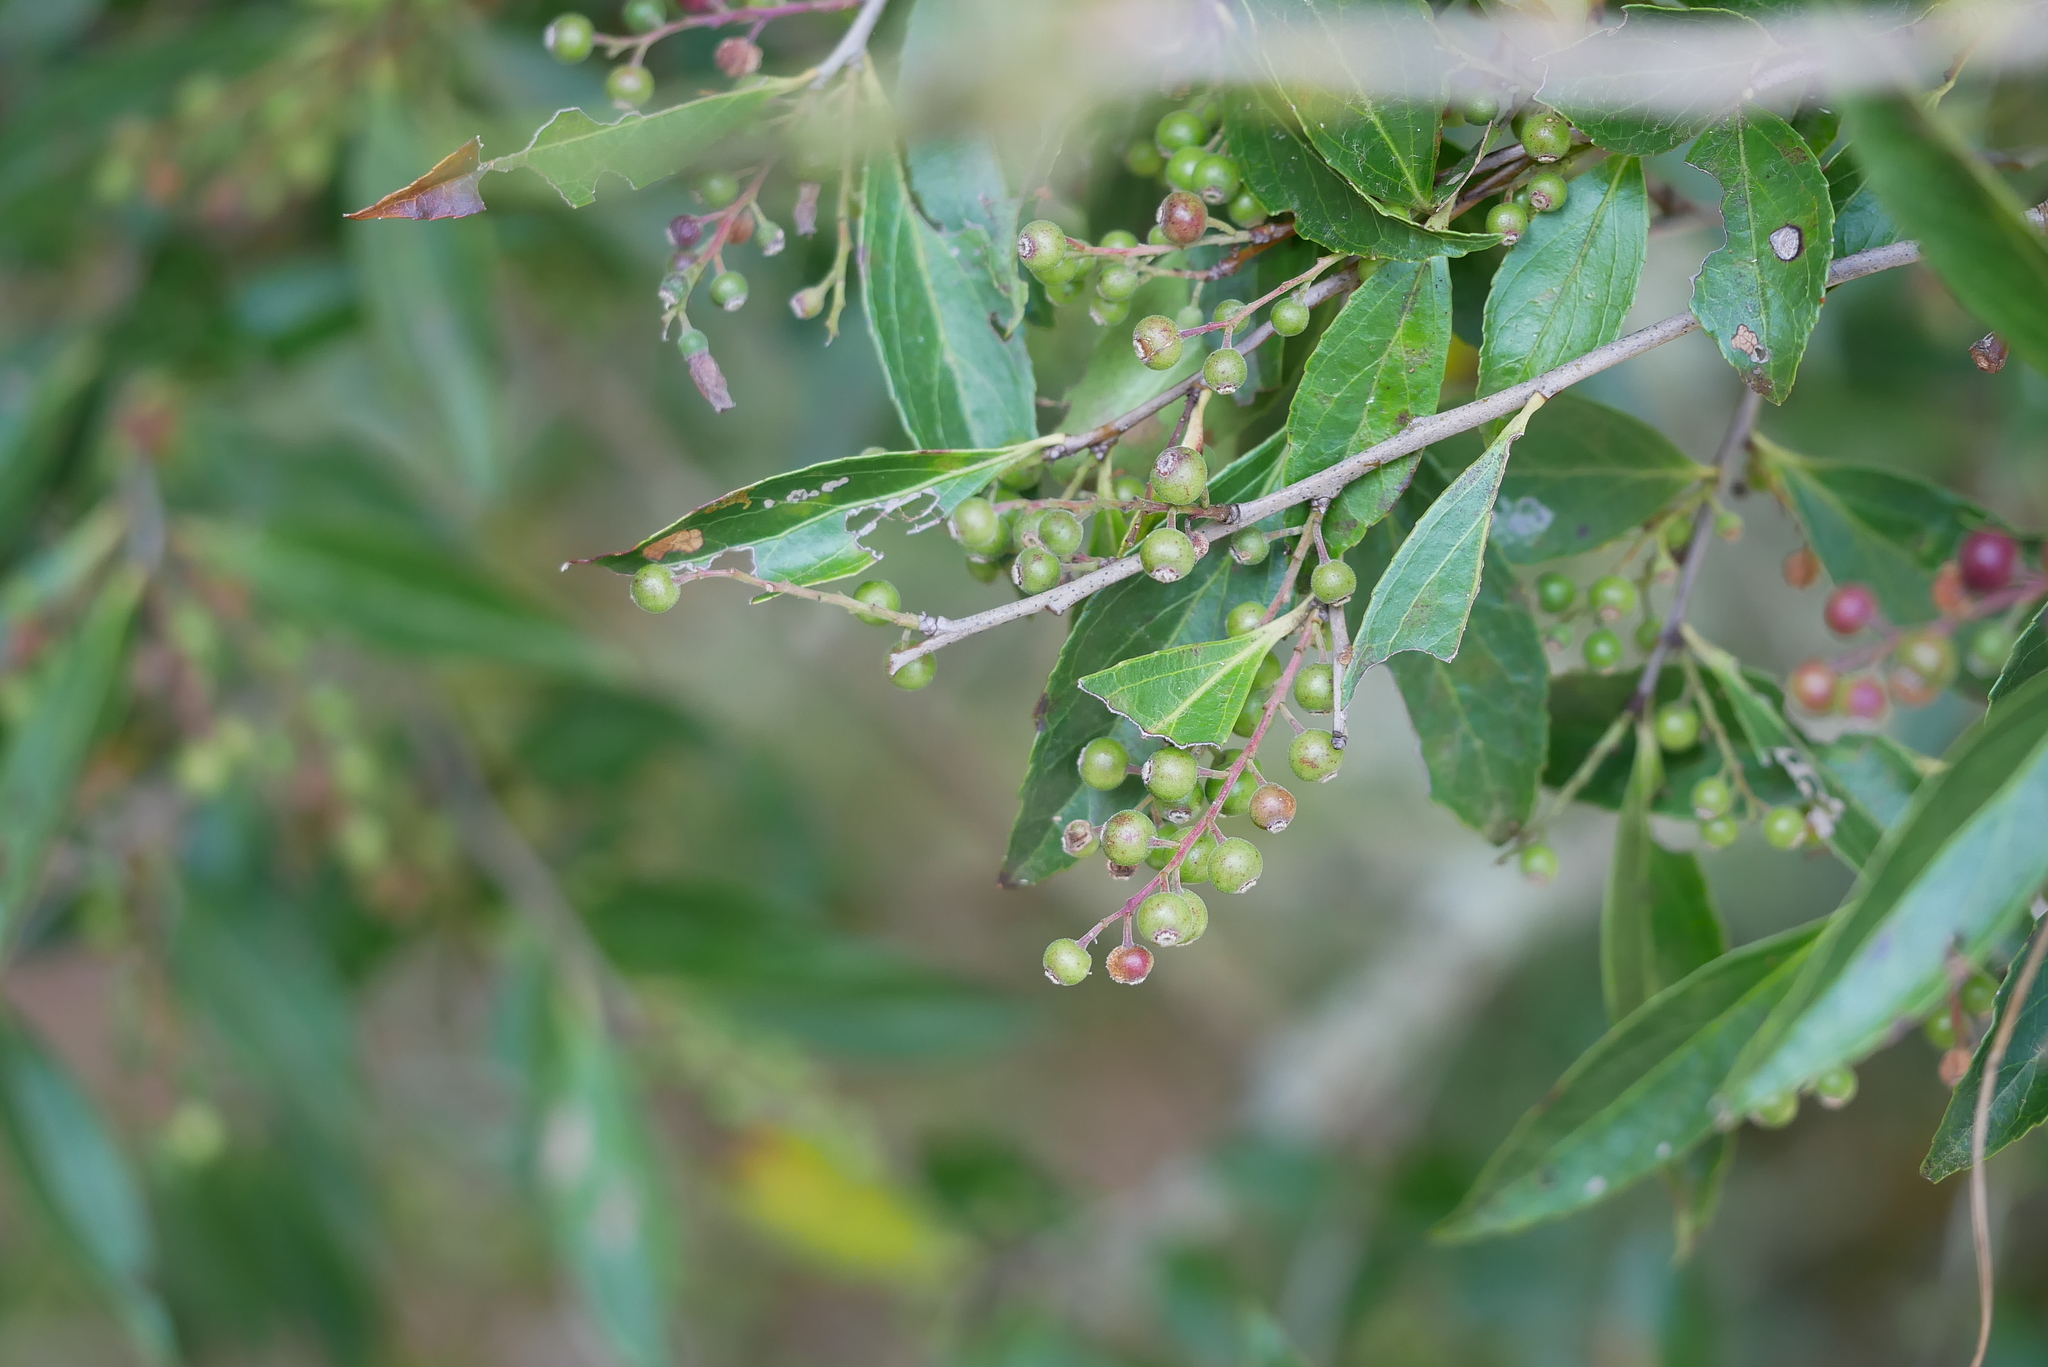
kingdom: Plantae
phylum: Tracheophyta
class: Magnoliopsida
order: Ericales
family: Ericaceae
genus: Vaccinium
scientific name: Vaccinium bracteatum
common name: Sea bilberry
